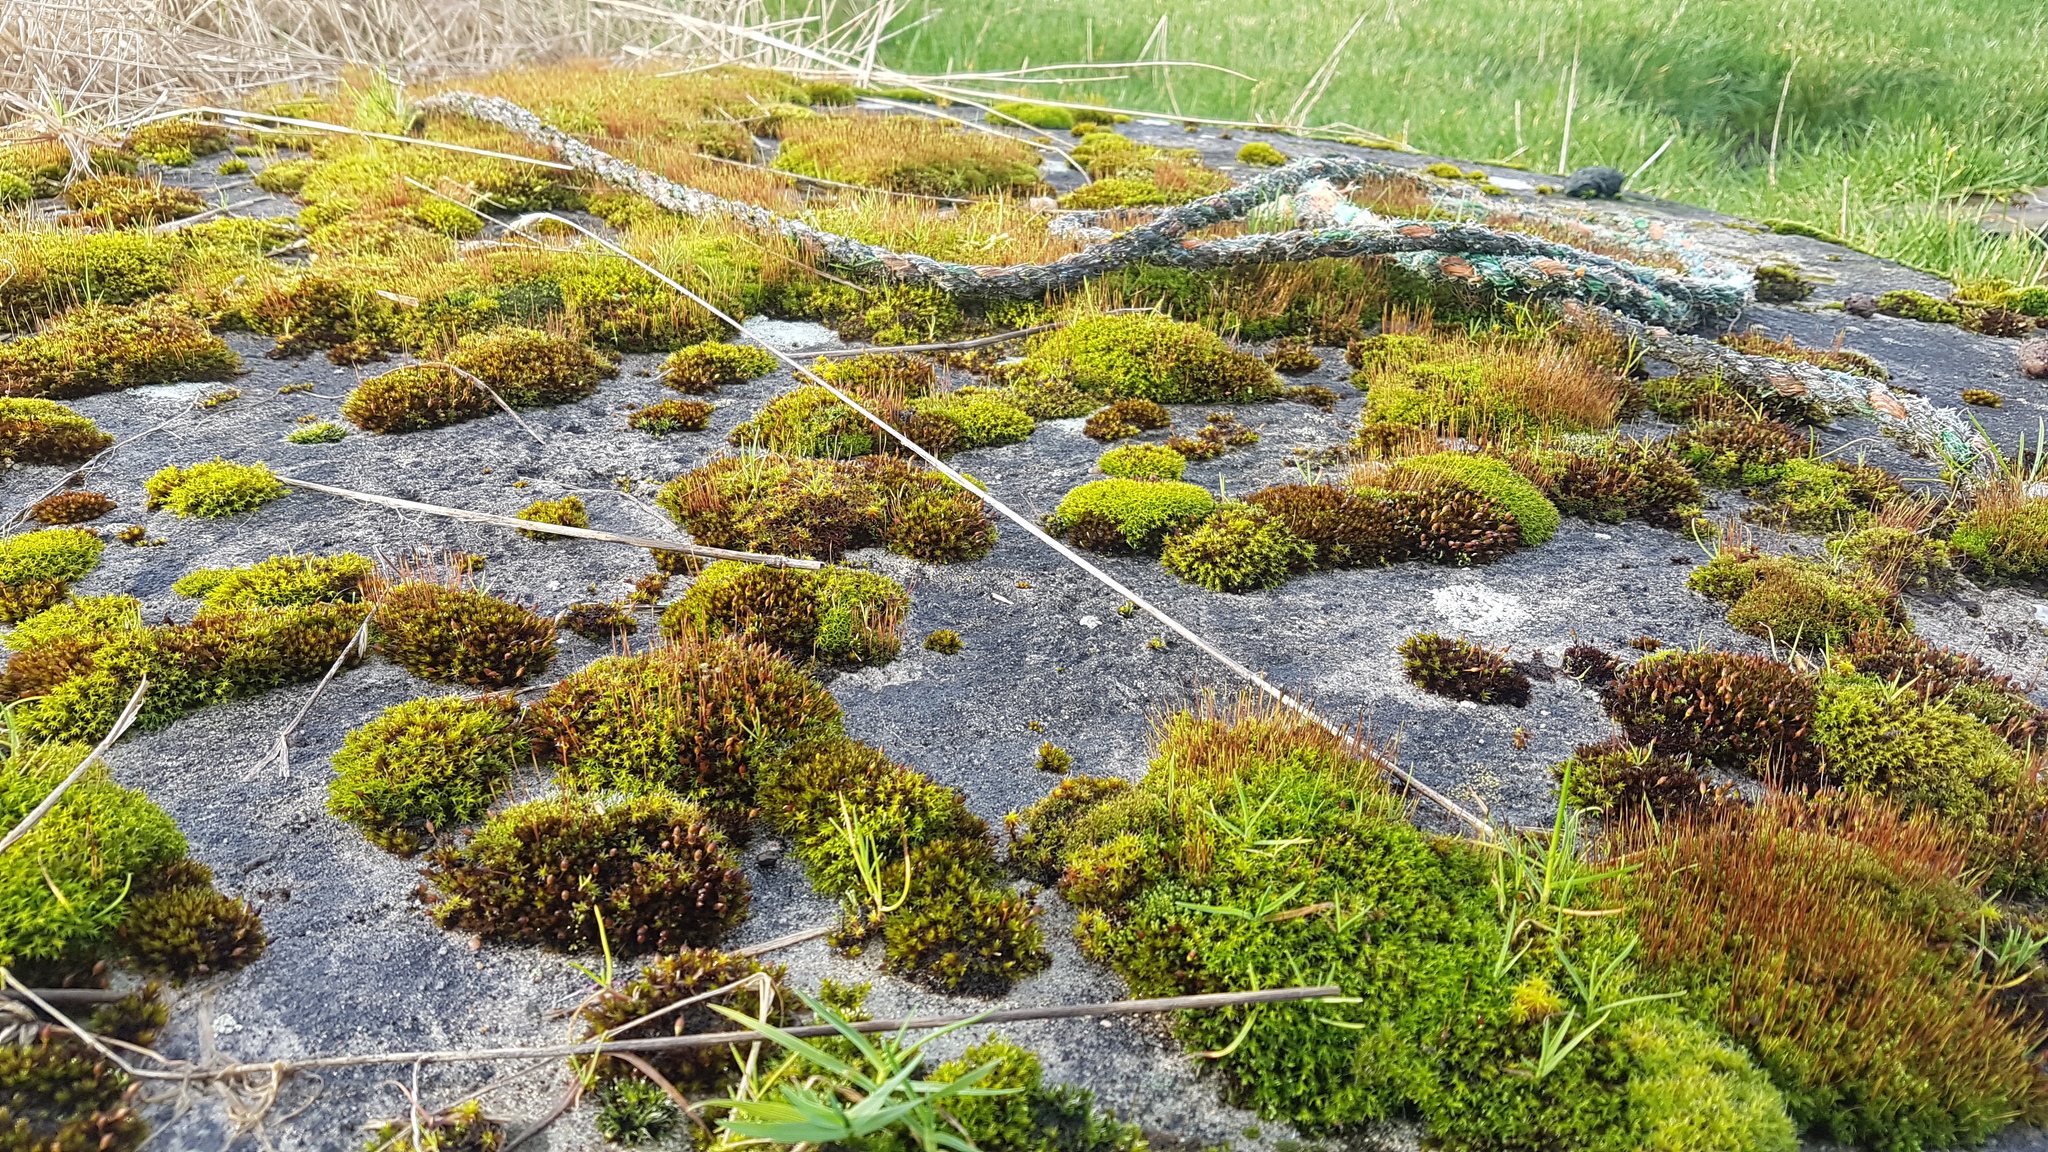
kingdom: Plantae
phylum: Bryophyta
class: Bryopsida
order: Dicranales
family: Ditrichaceae
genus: Ceratodon
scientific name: Ceratodon purpureus
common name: Redshank
